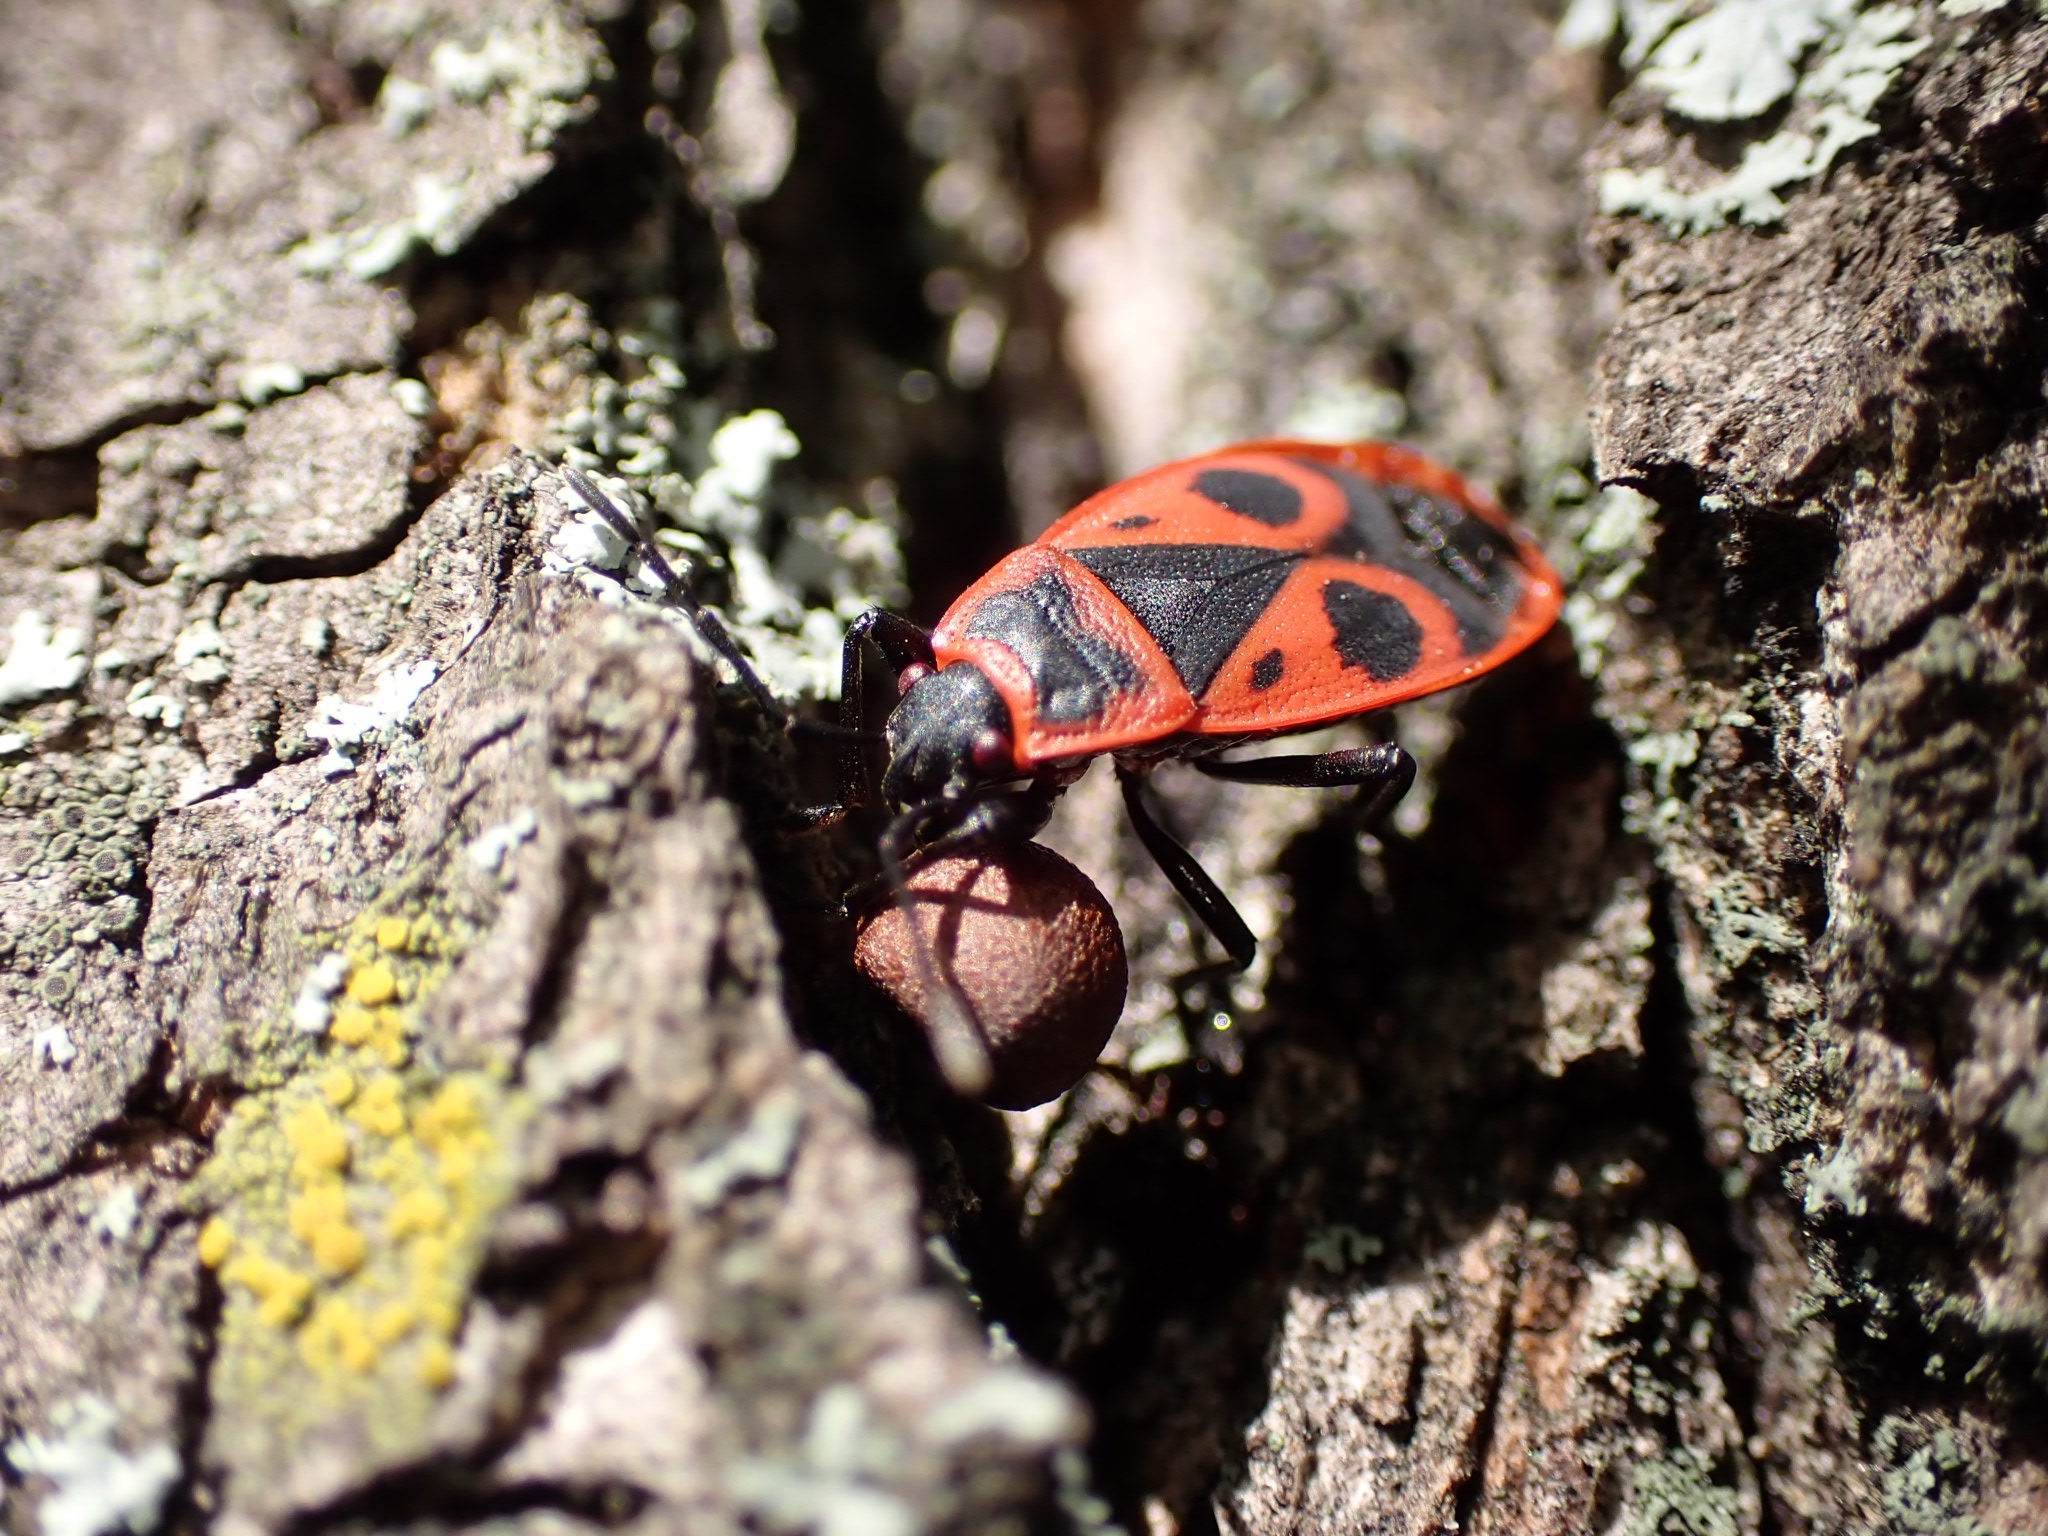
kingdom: Animalia
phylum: Arthropoda
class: Insecta
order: Hemiptera
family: Pyrrhocoridae
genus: Pyrrhocoris
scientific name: Pyrrhocoris apterus
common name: Firebug
